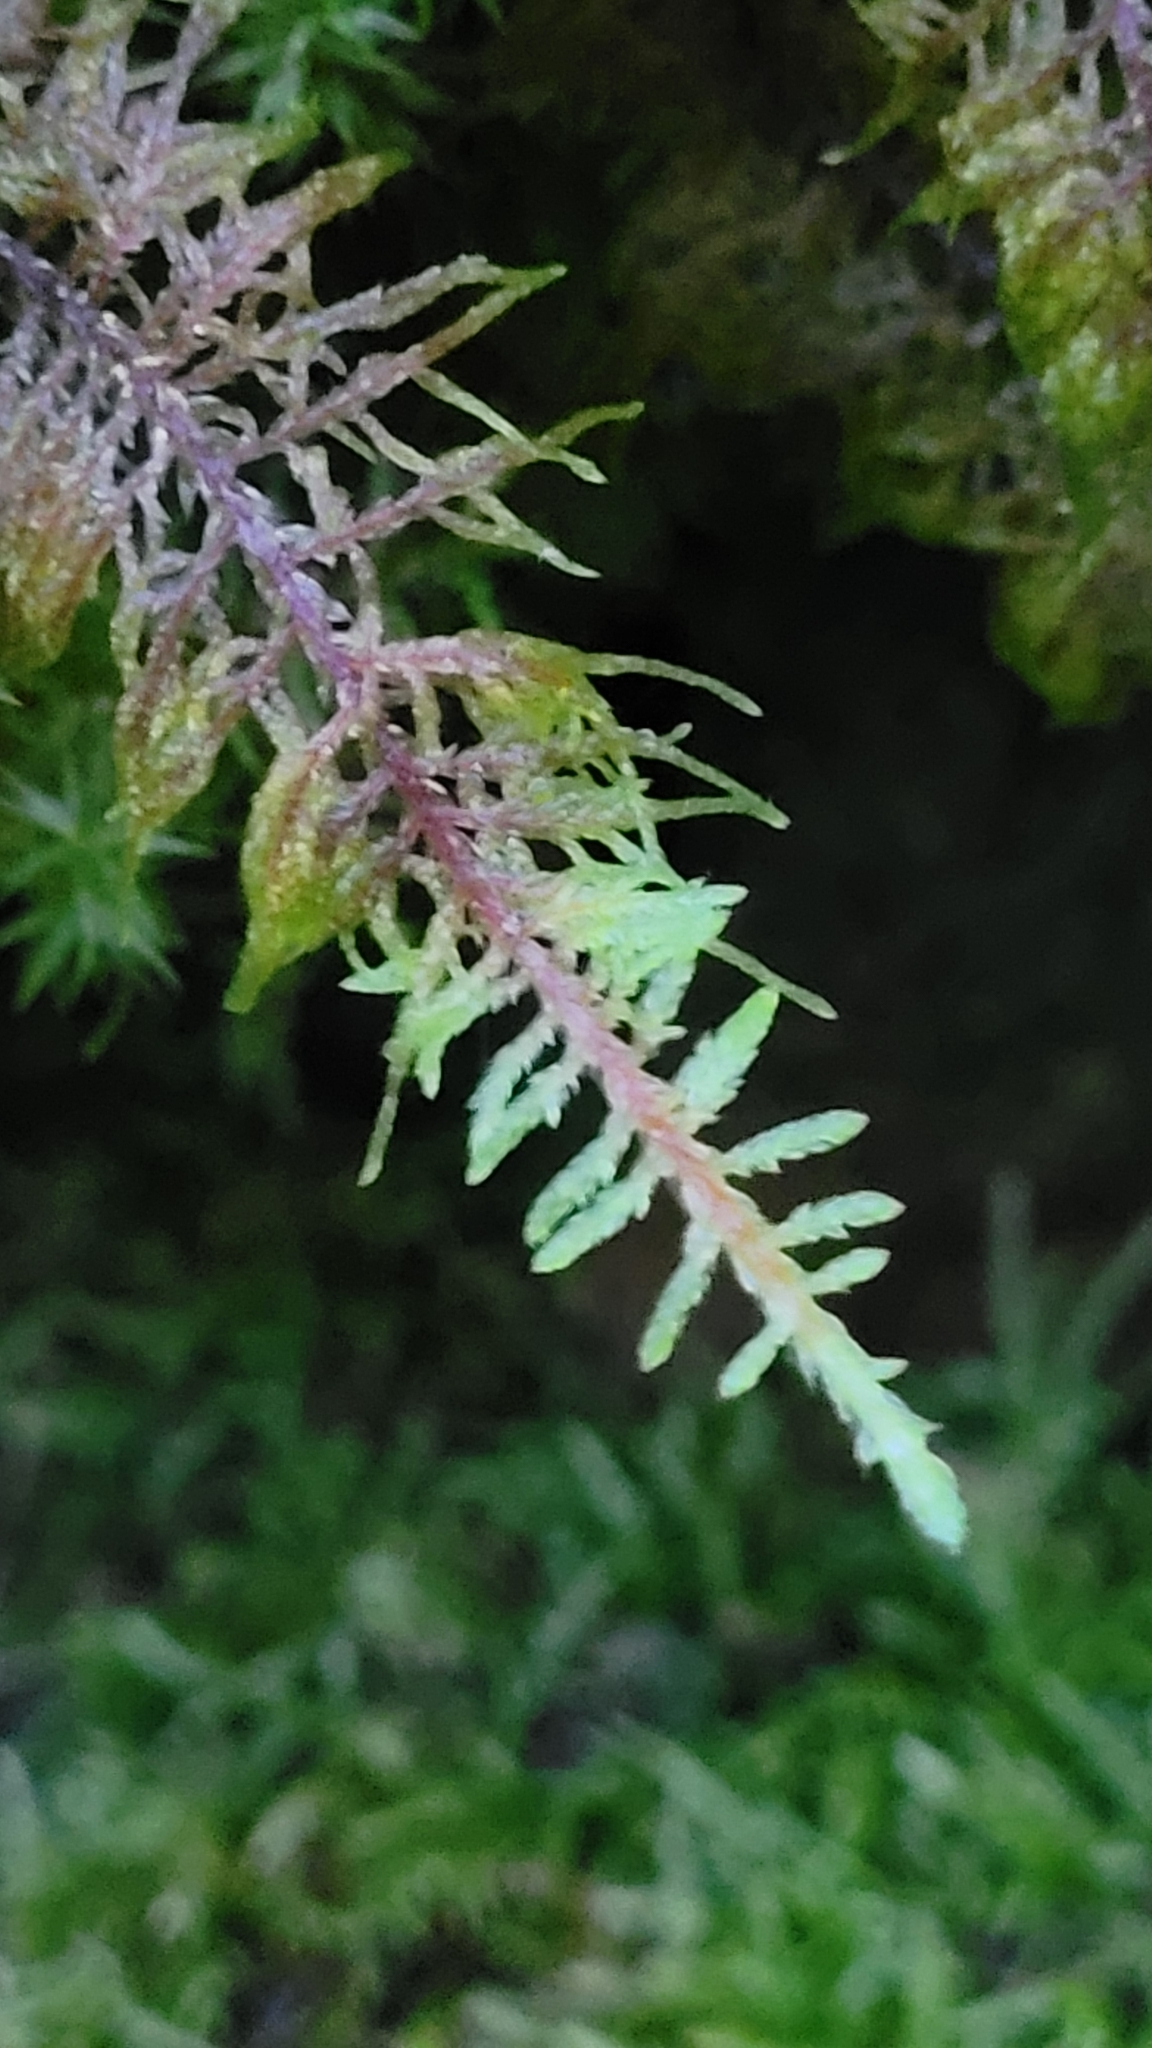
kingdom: Plantae
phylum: Bryophyta
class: Bryopsida
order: Hypnales
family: Hylocomiaceae
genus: Hylocomium
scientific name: Hylocomium splendens
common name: Stairstep moss
